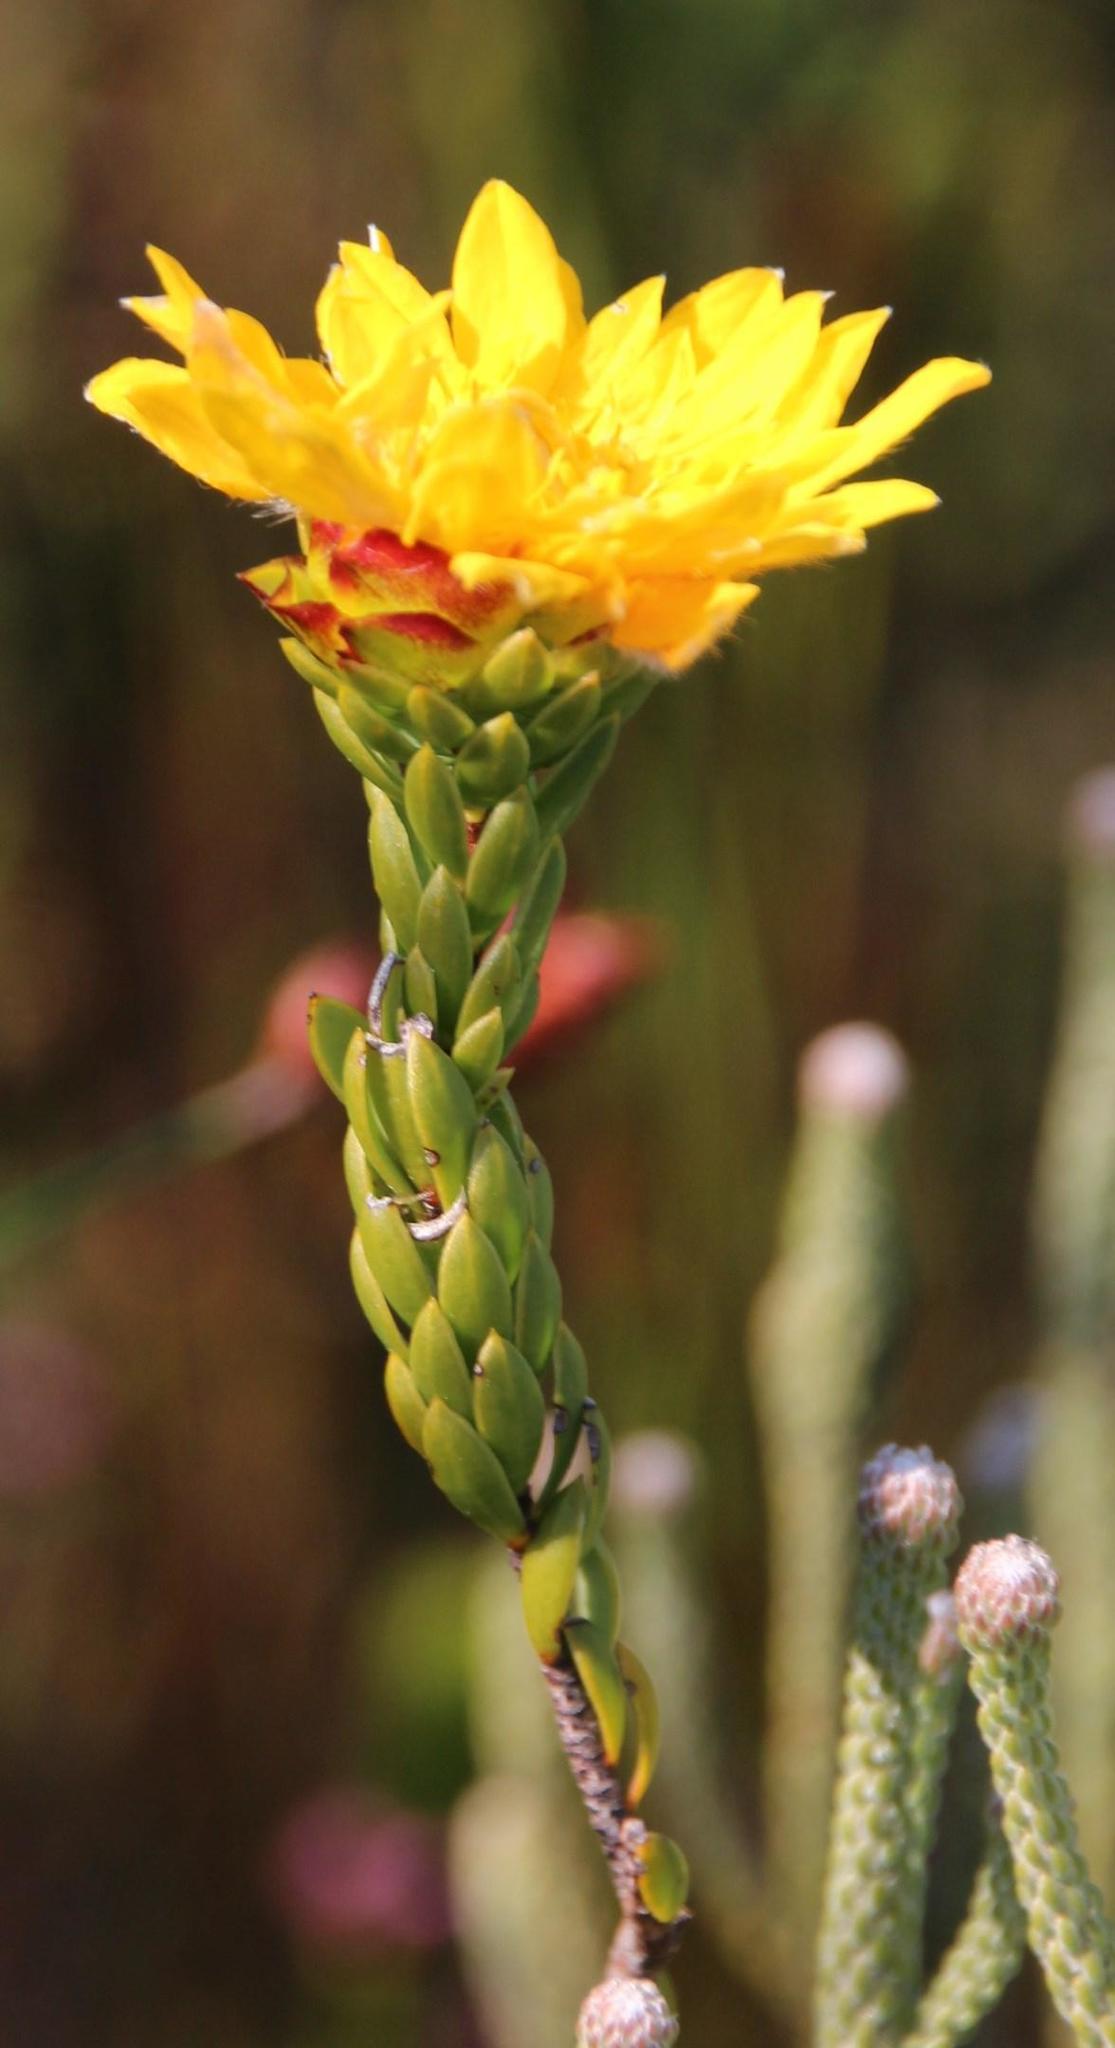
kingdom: Plantae
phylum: Tracheophyta
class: Magnoliopsida
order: Malvales
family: Thymelaeaceae
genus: Lachnaea
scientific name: Lachnaea aurea
